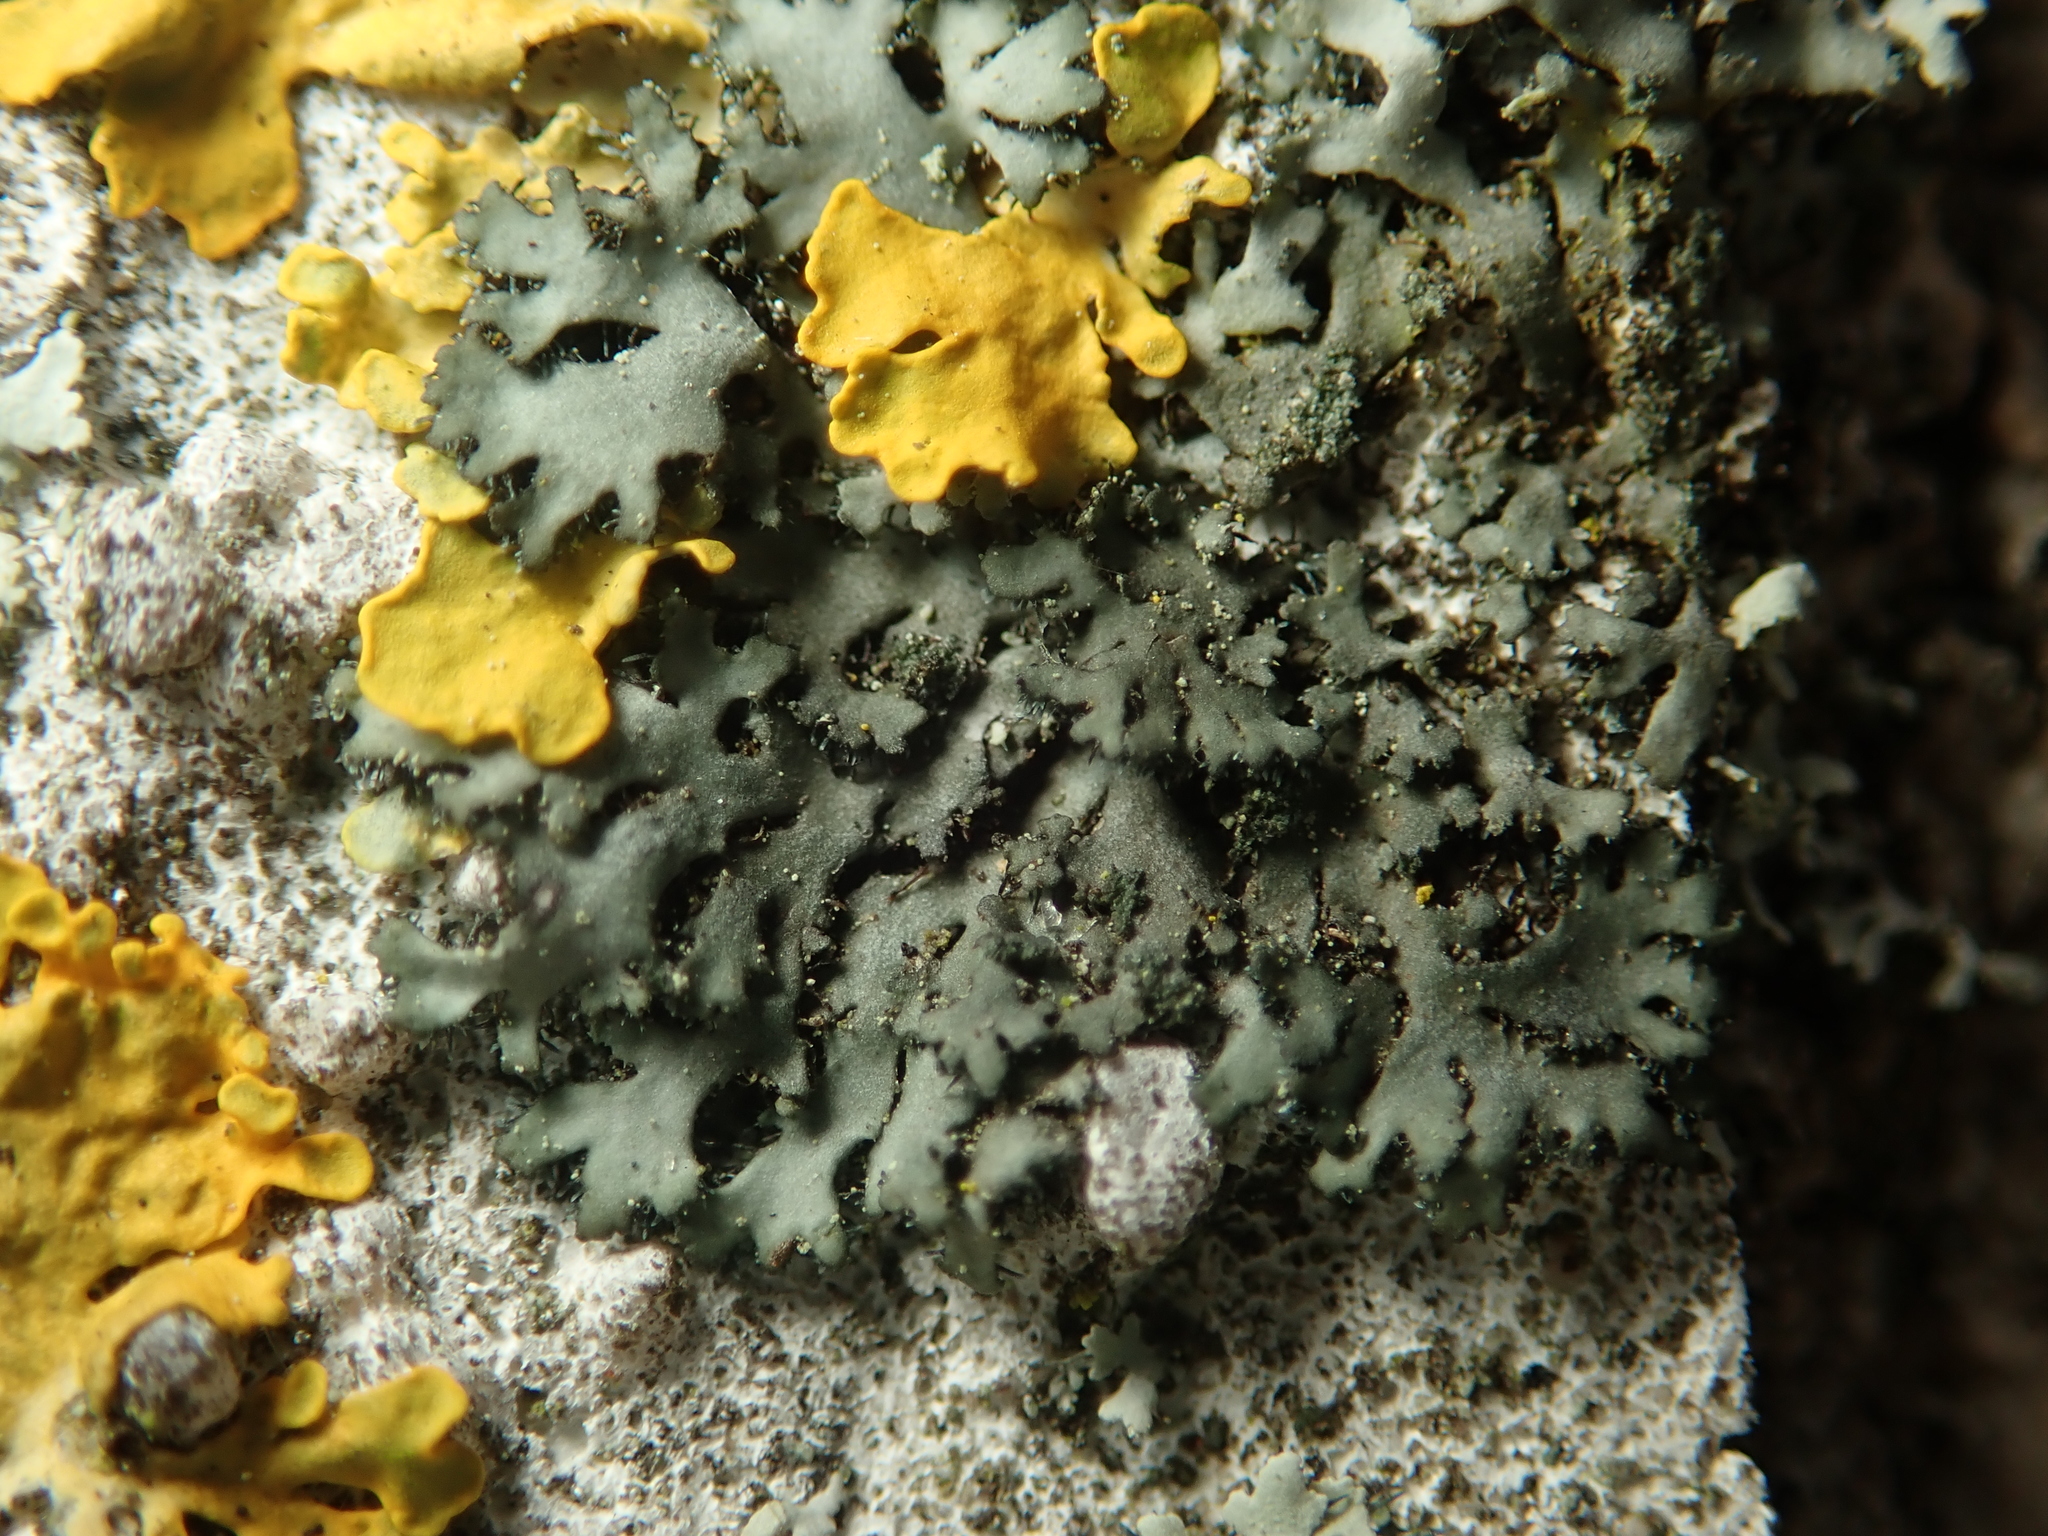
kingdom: Fungi
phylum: Ascomycota
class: Lecanoromycetes
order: Caliciales
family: Physciaceae
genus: Phaeophyscia
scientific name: Phaeophyscia orbicularis
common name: Mealy shadow lichen
